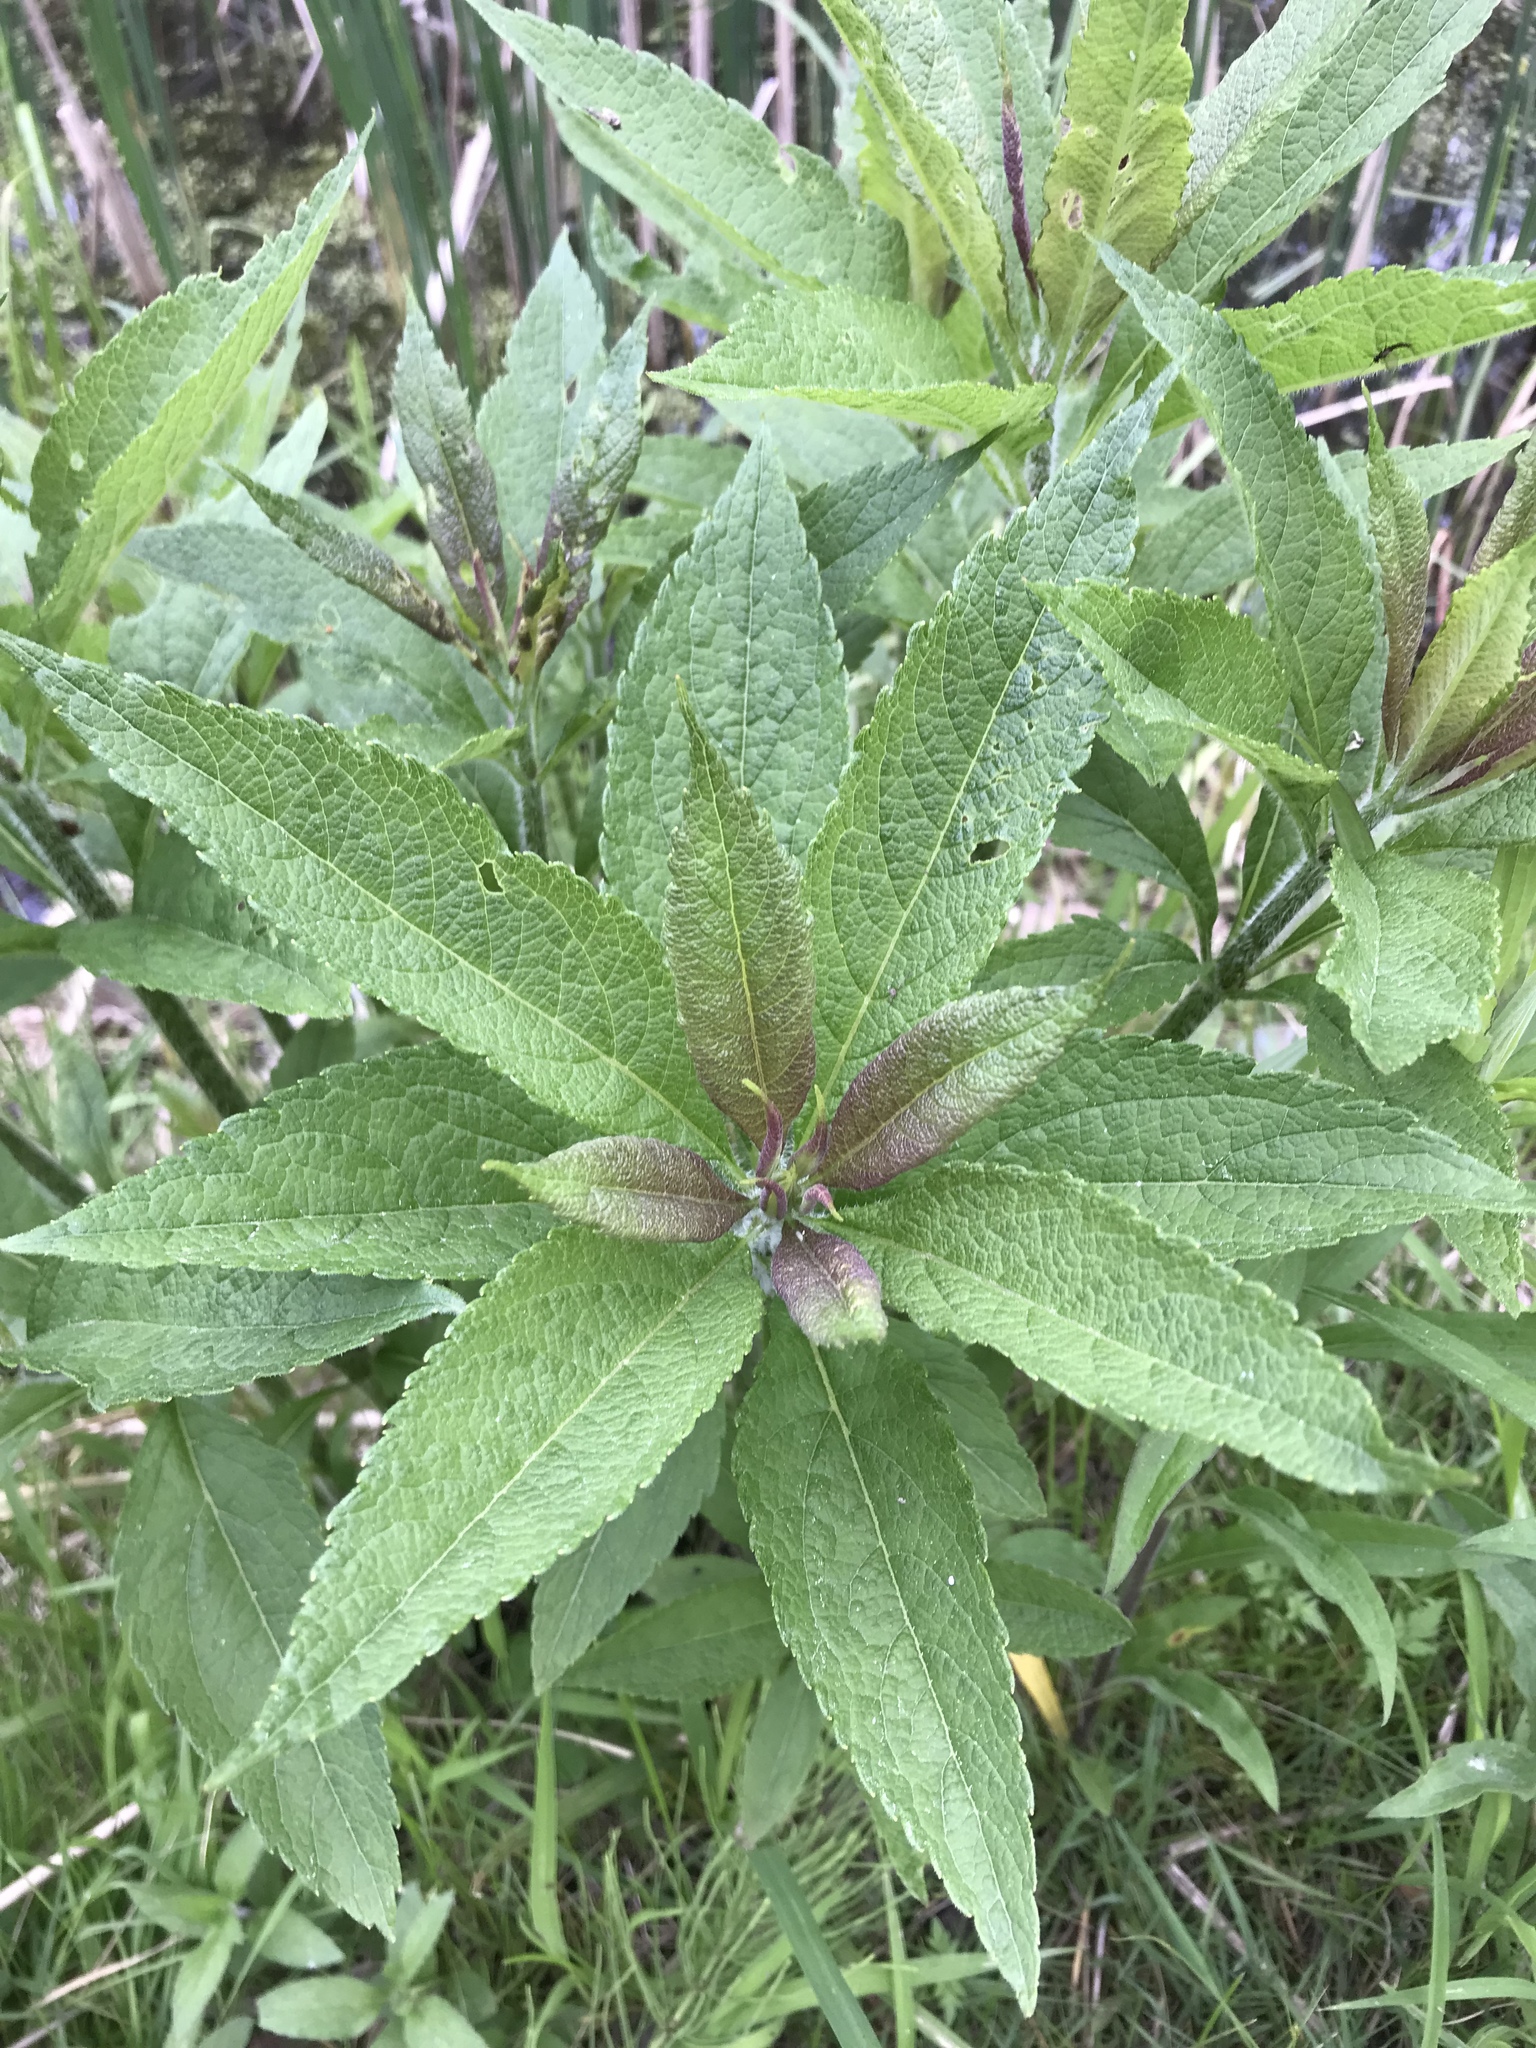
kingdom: Plantae
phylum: Tracheophyta
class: Magnoliopsida
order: Asterales
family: Asteraceae
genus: Eutrochium
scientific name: Eutrochium maculatum
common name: Spotted joe pye weed
